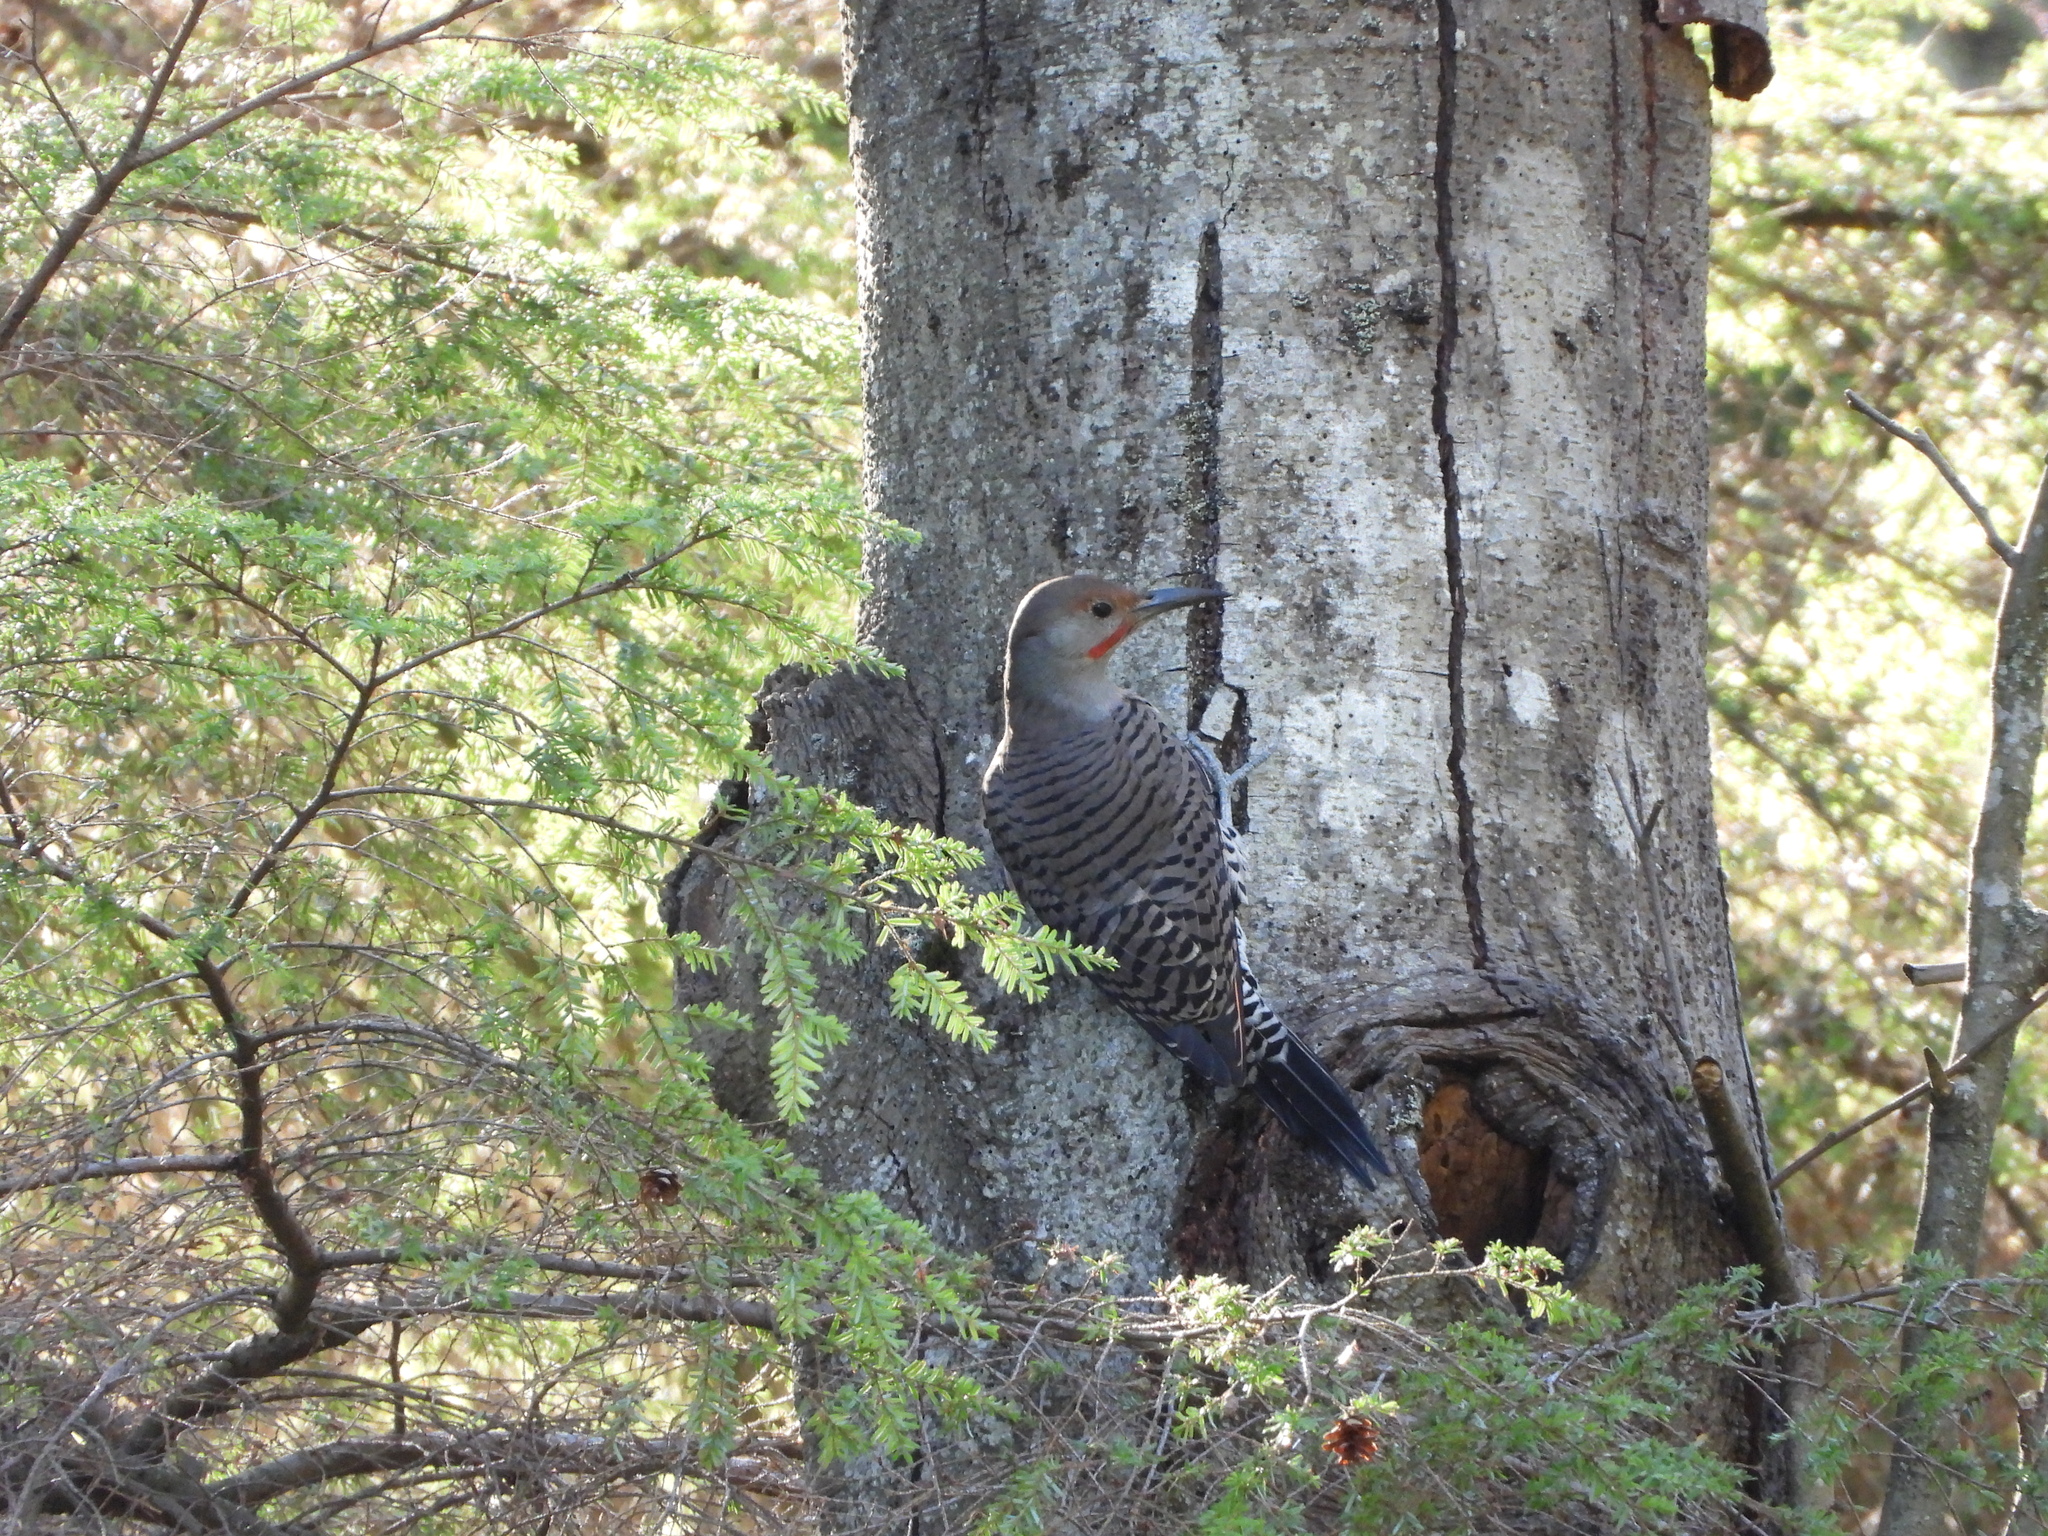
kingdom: Animalia
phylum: Chordata
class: Aves
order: Piciformes
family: Picidae
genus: Colaptes
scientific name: Colaptes auratus
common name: Northern flicker
